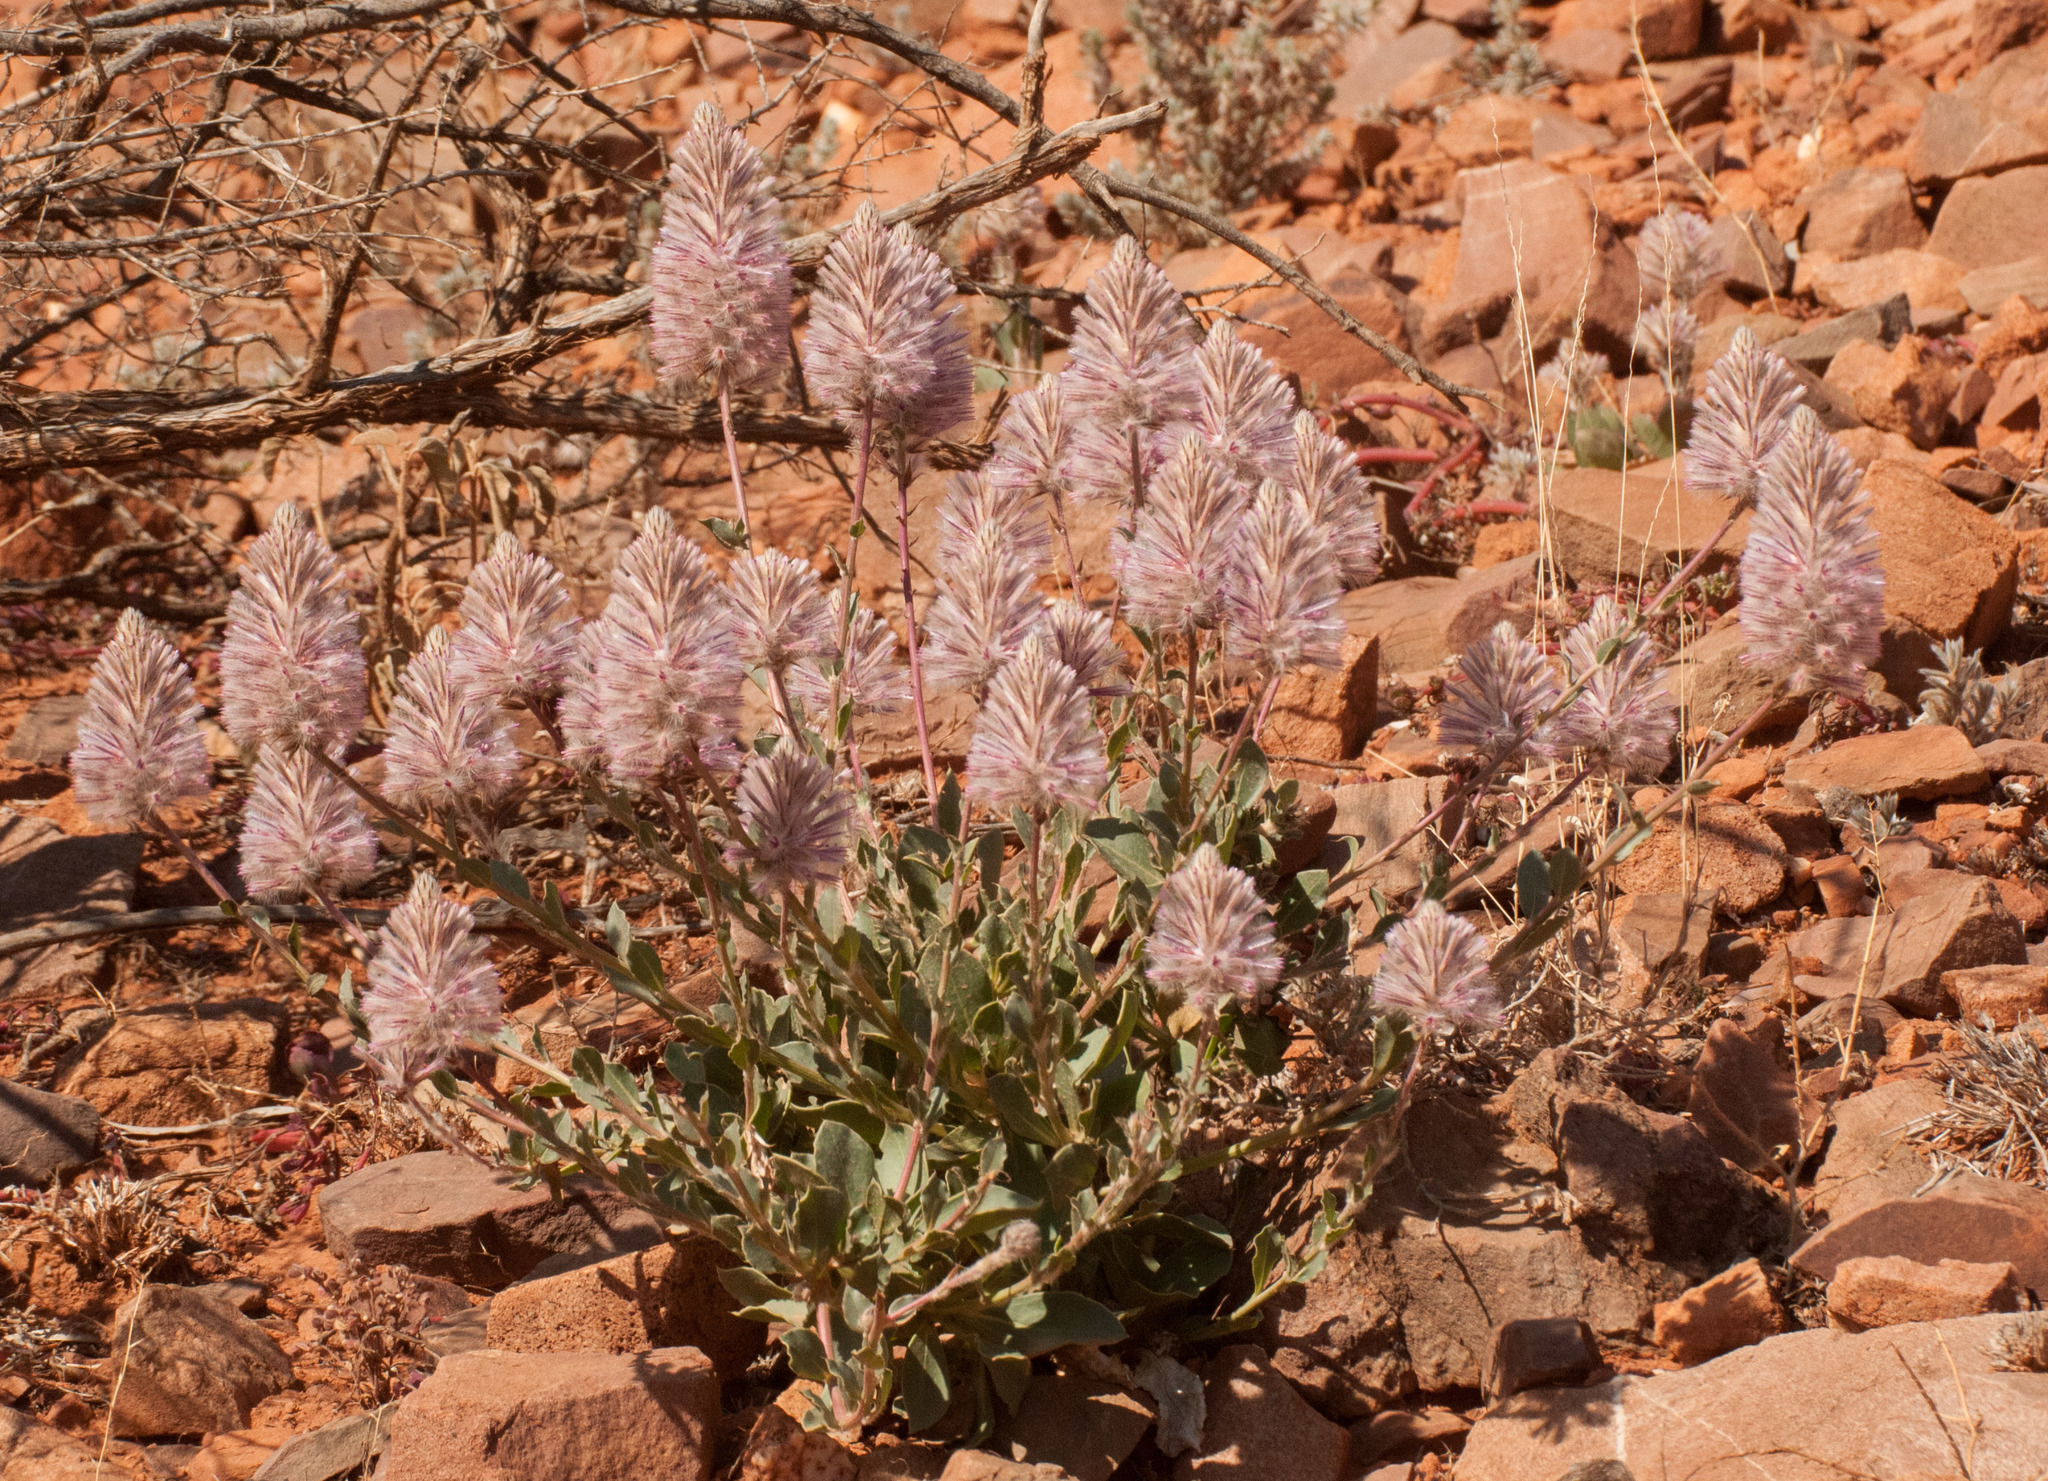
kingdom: Plantae
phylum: Tracheophyta
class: Magnoliopsida
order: Caryophyllales
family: Amaranthaceae
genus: Ptilotus
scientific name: Ptilotus exaltatus
